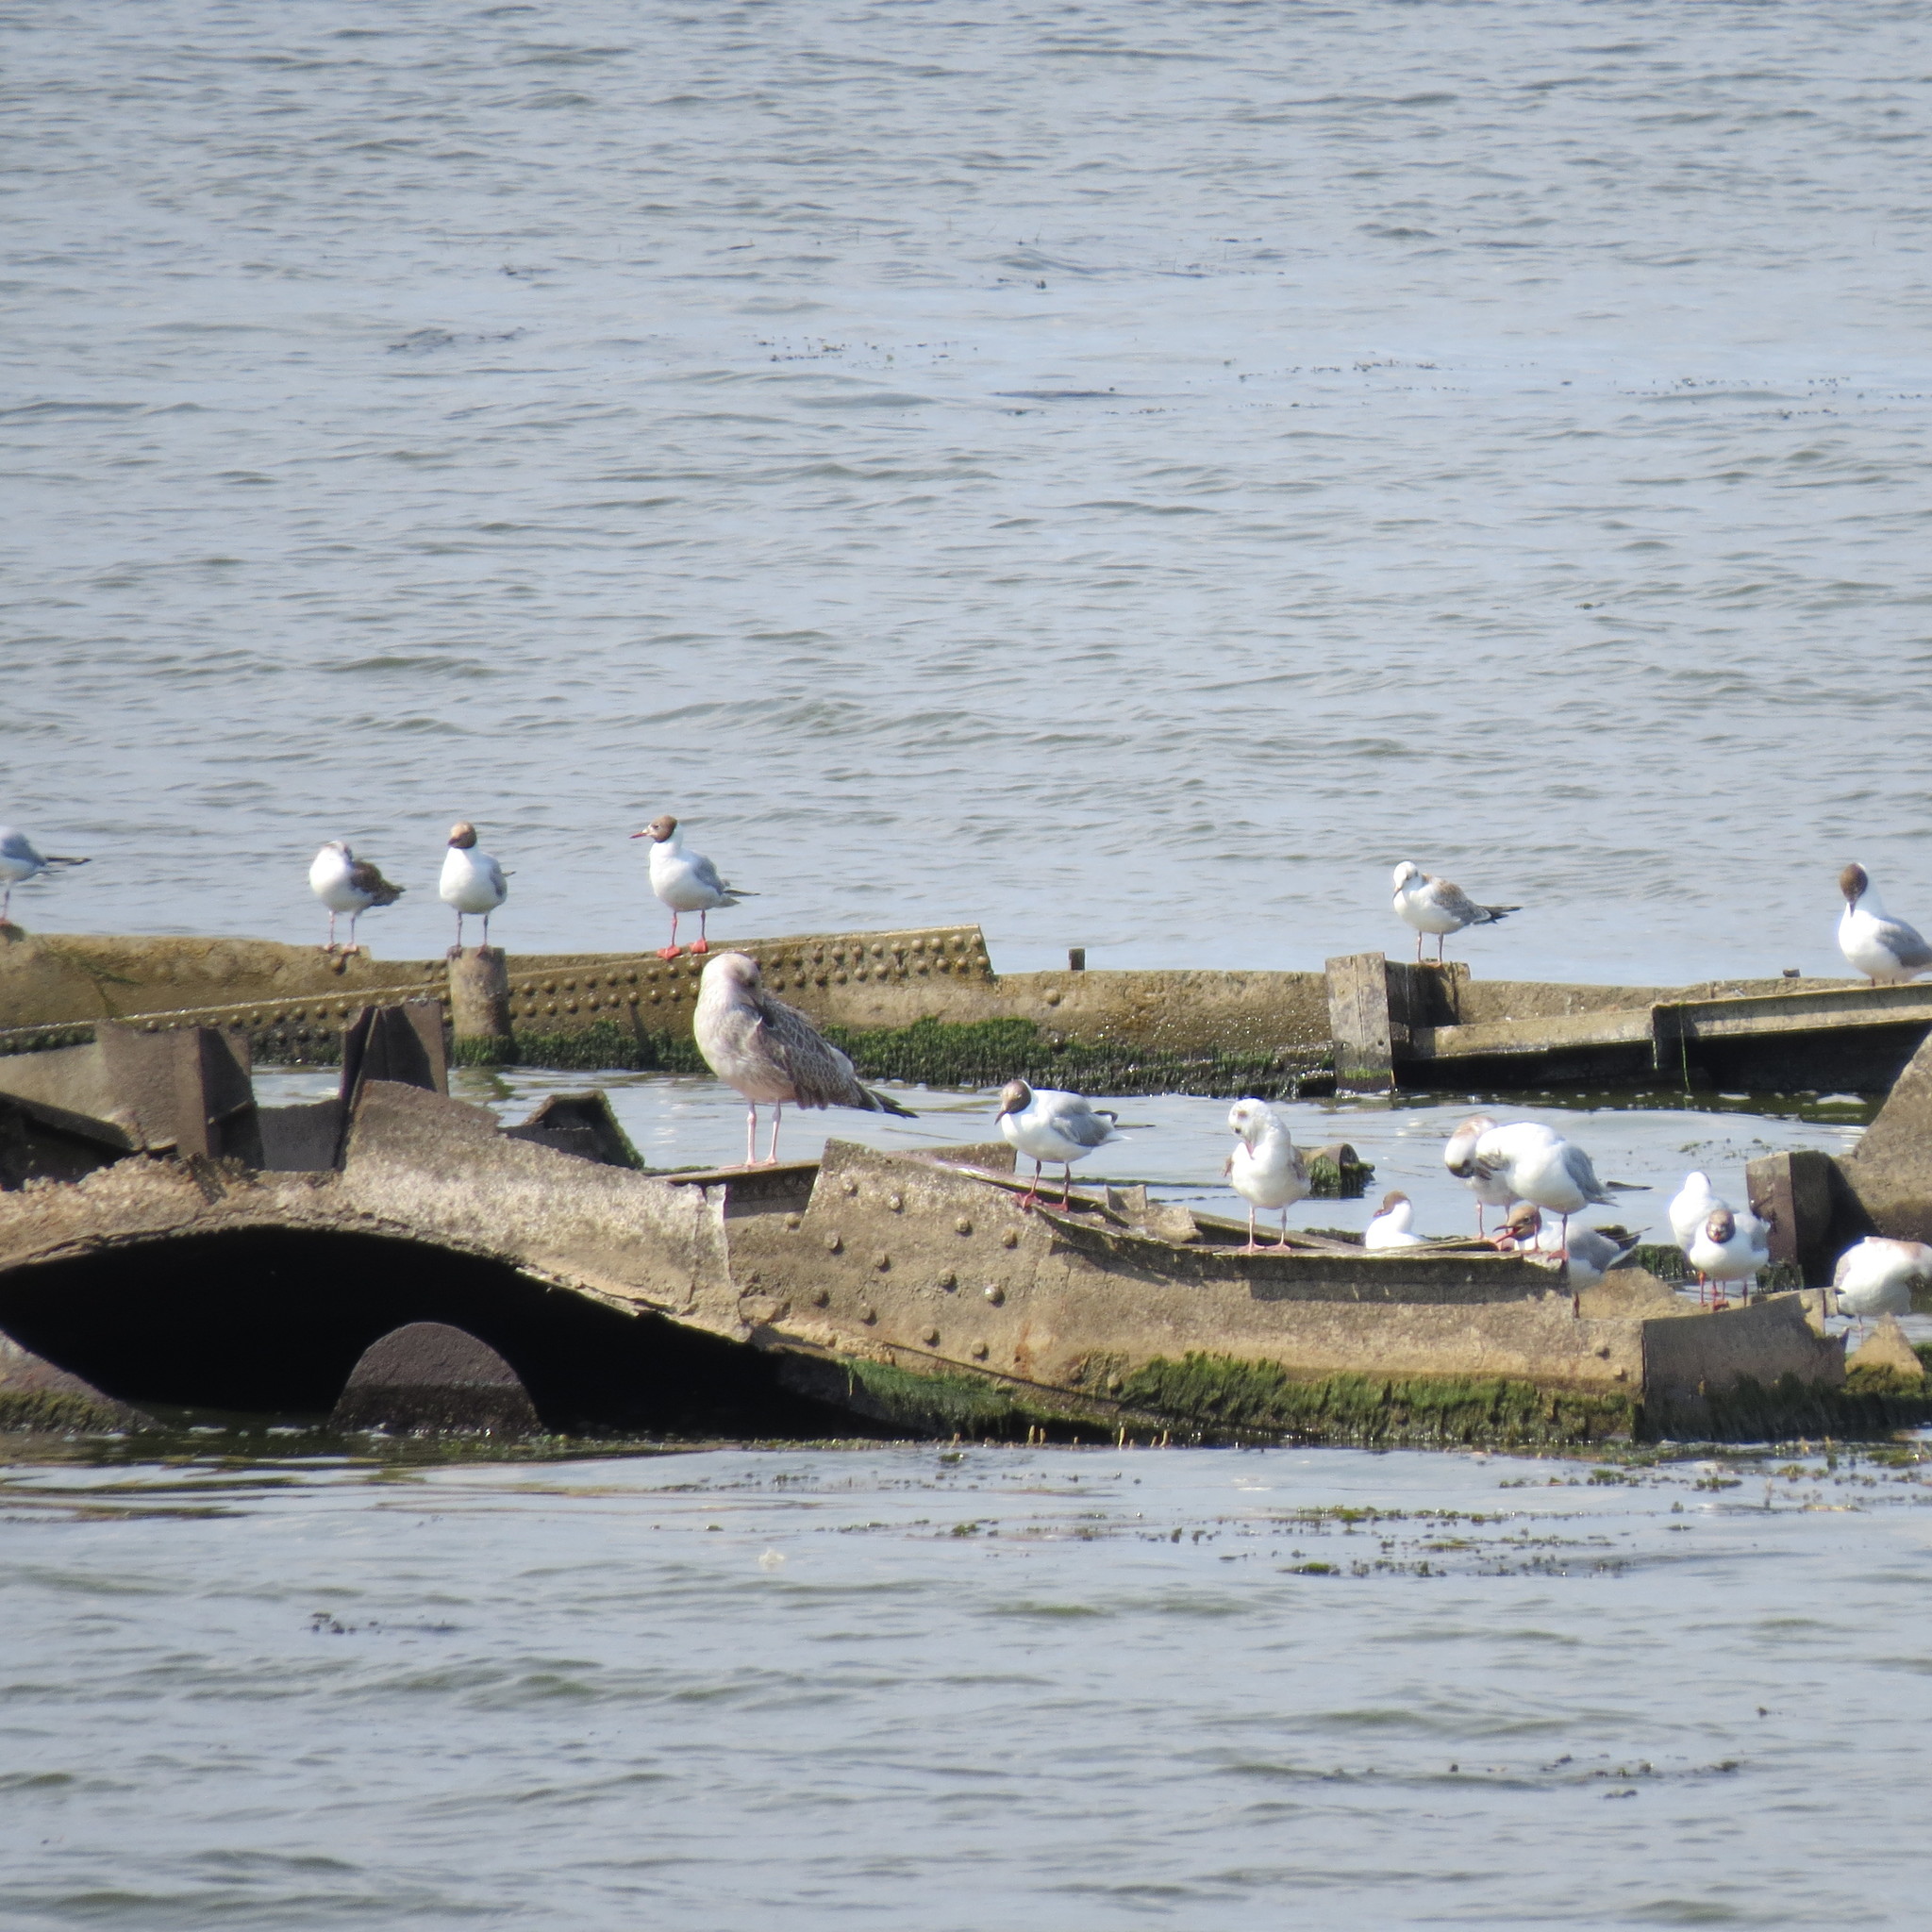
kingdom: Animalia
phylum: Chordata
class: Aves
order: Charadriiformes
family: Laridae
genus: Larus
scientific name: Larus cachinnans
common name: Caspian gull
